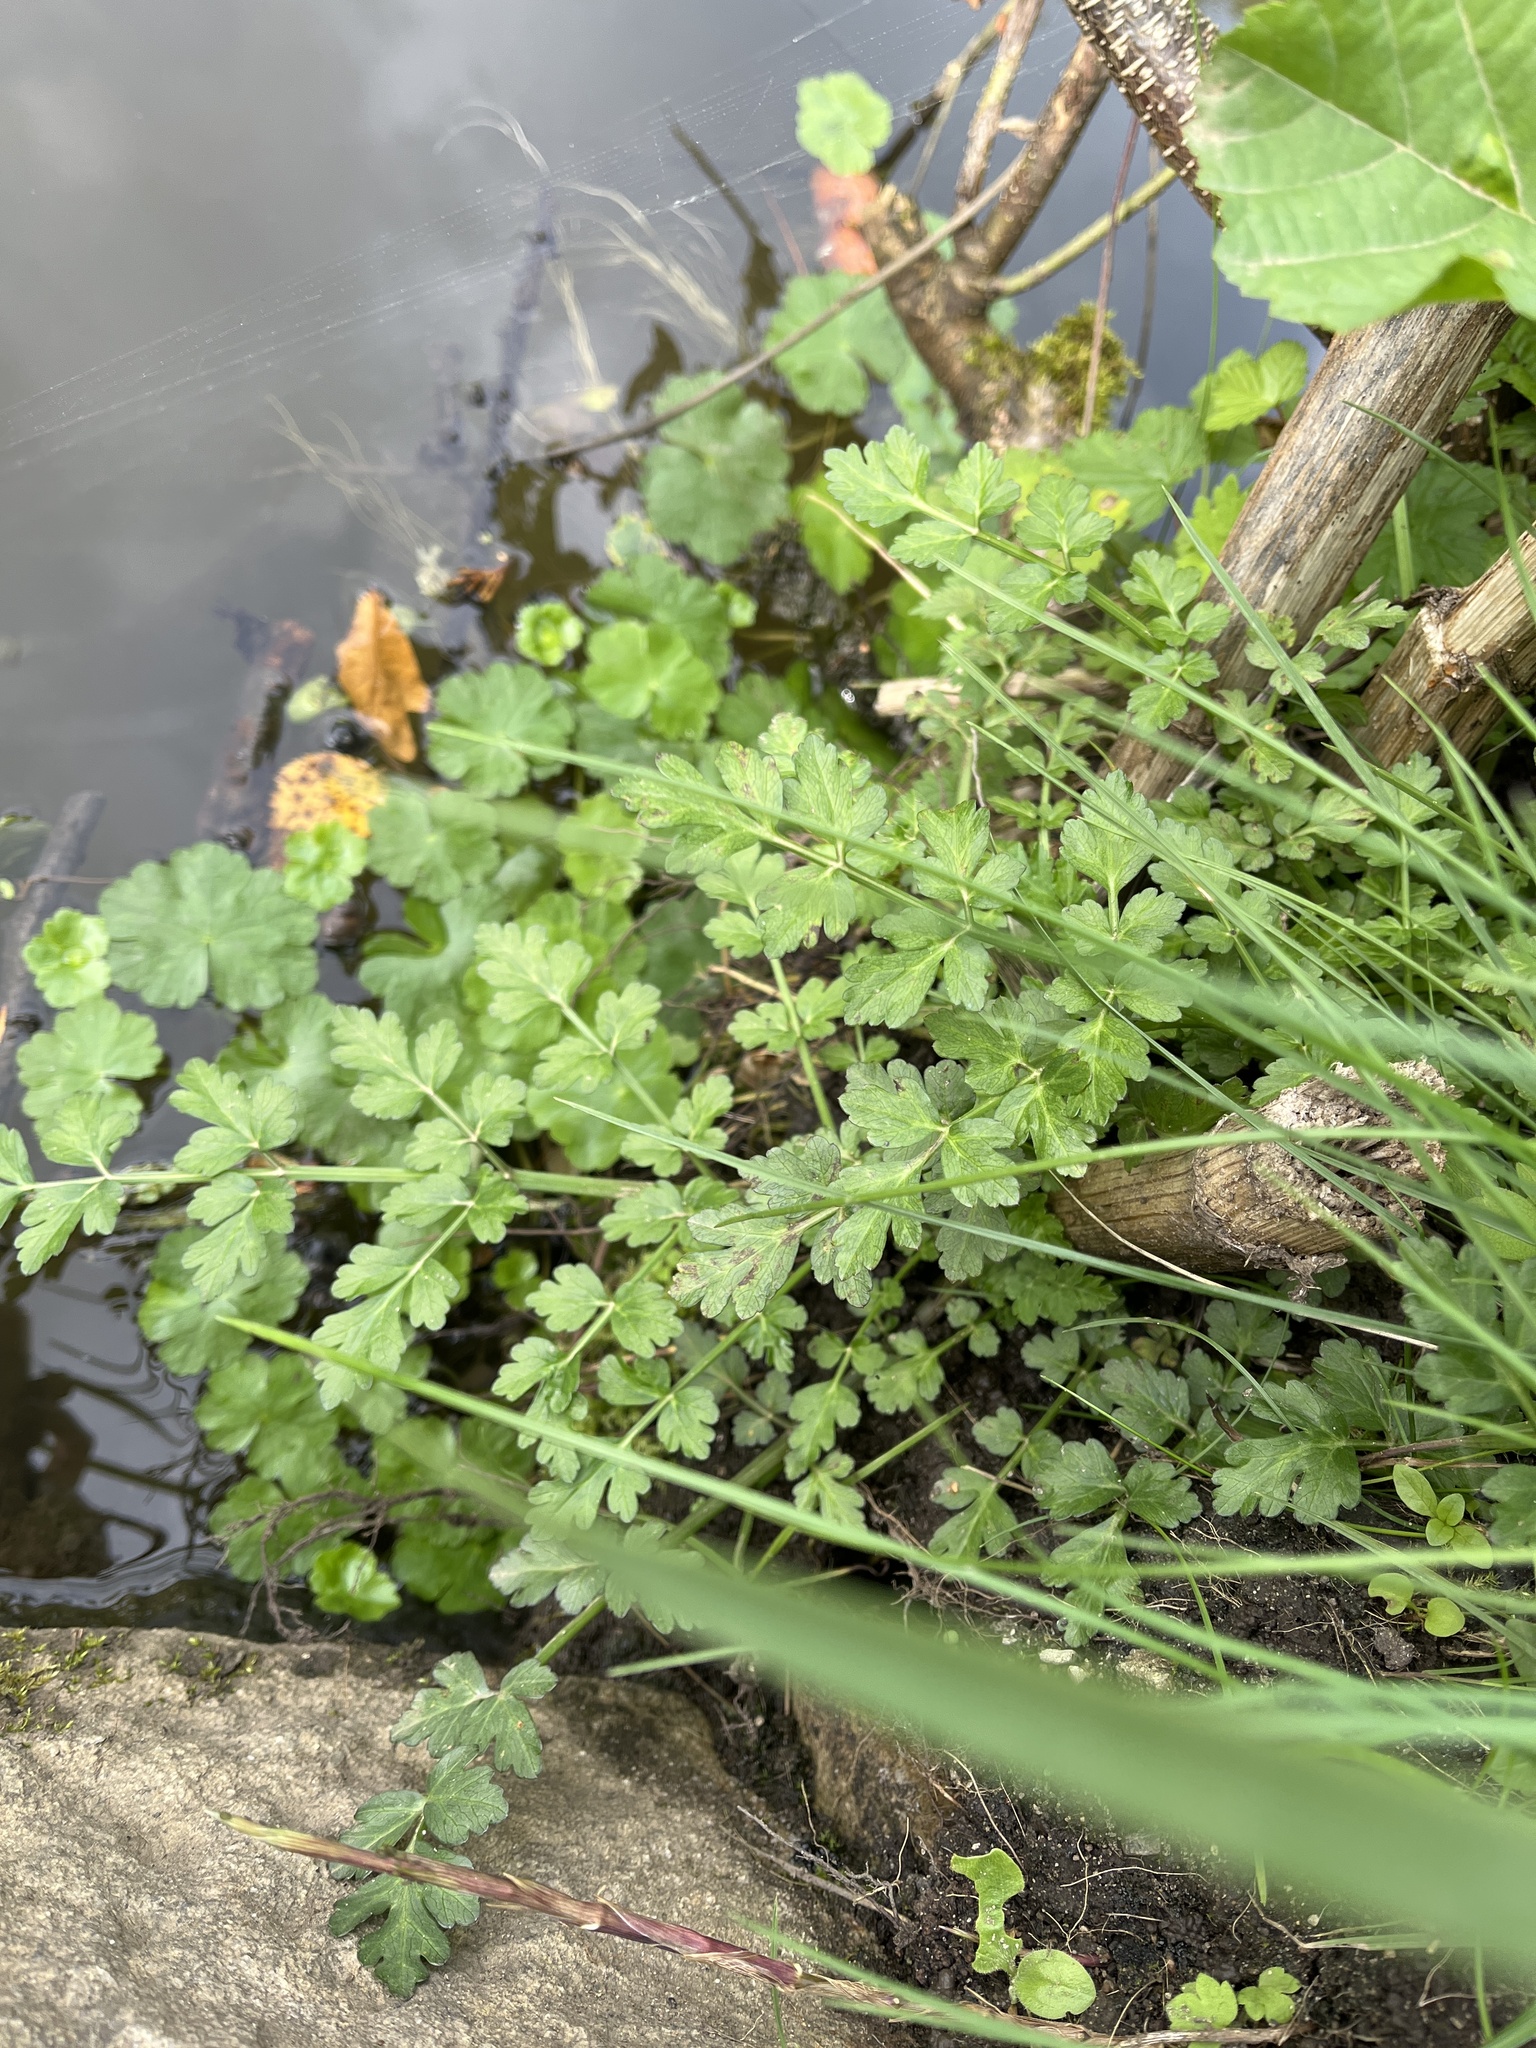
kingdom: Plantae
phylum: Tracheophyta
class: Magnoliopsida
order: Apiales
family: Apiaceae
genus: Oenanthe
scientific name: Oenanthe crocata
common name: Hemlock water-dropwort
